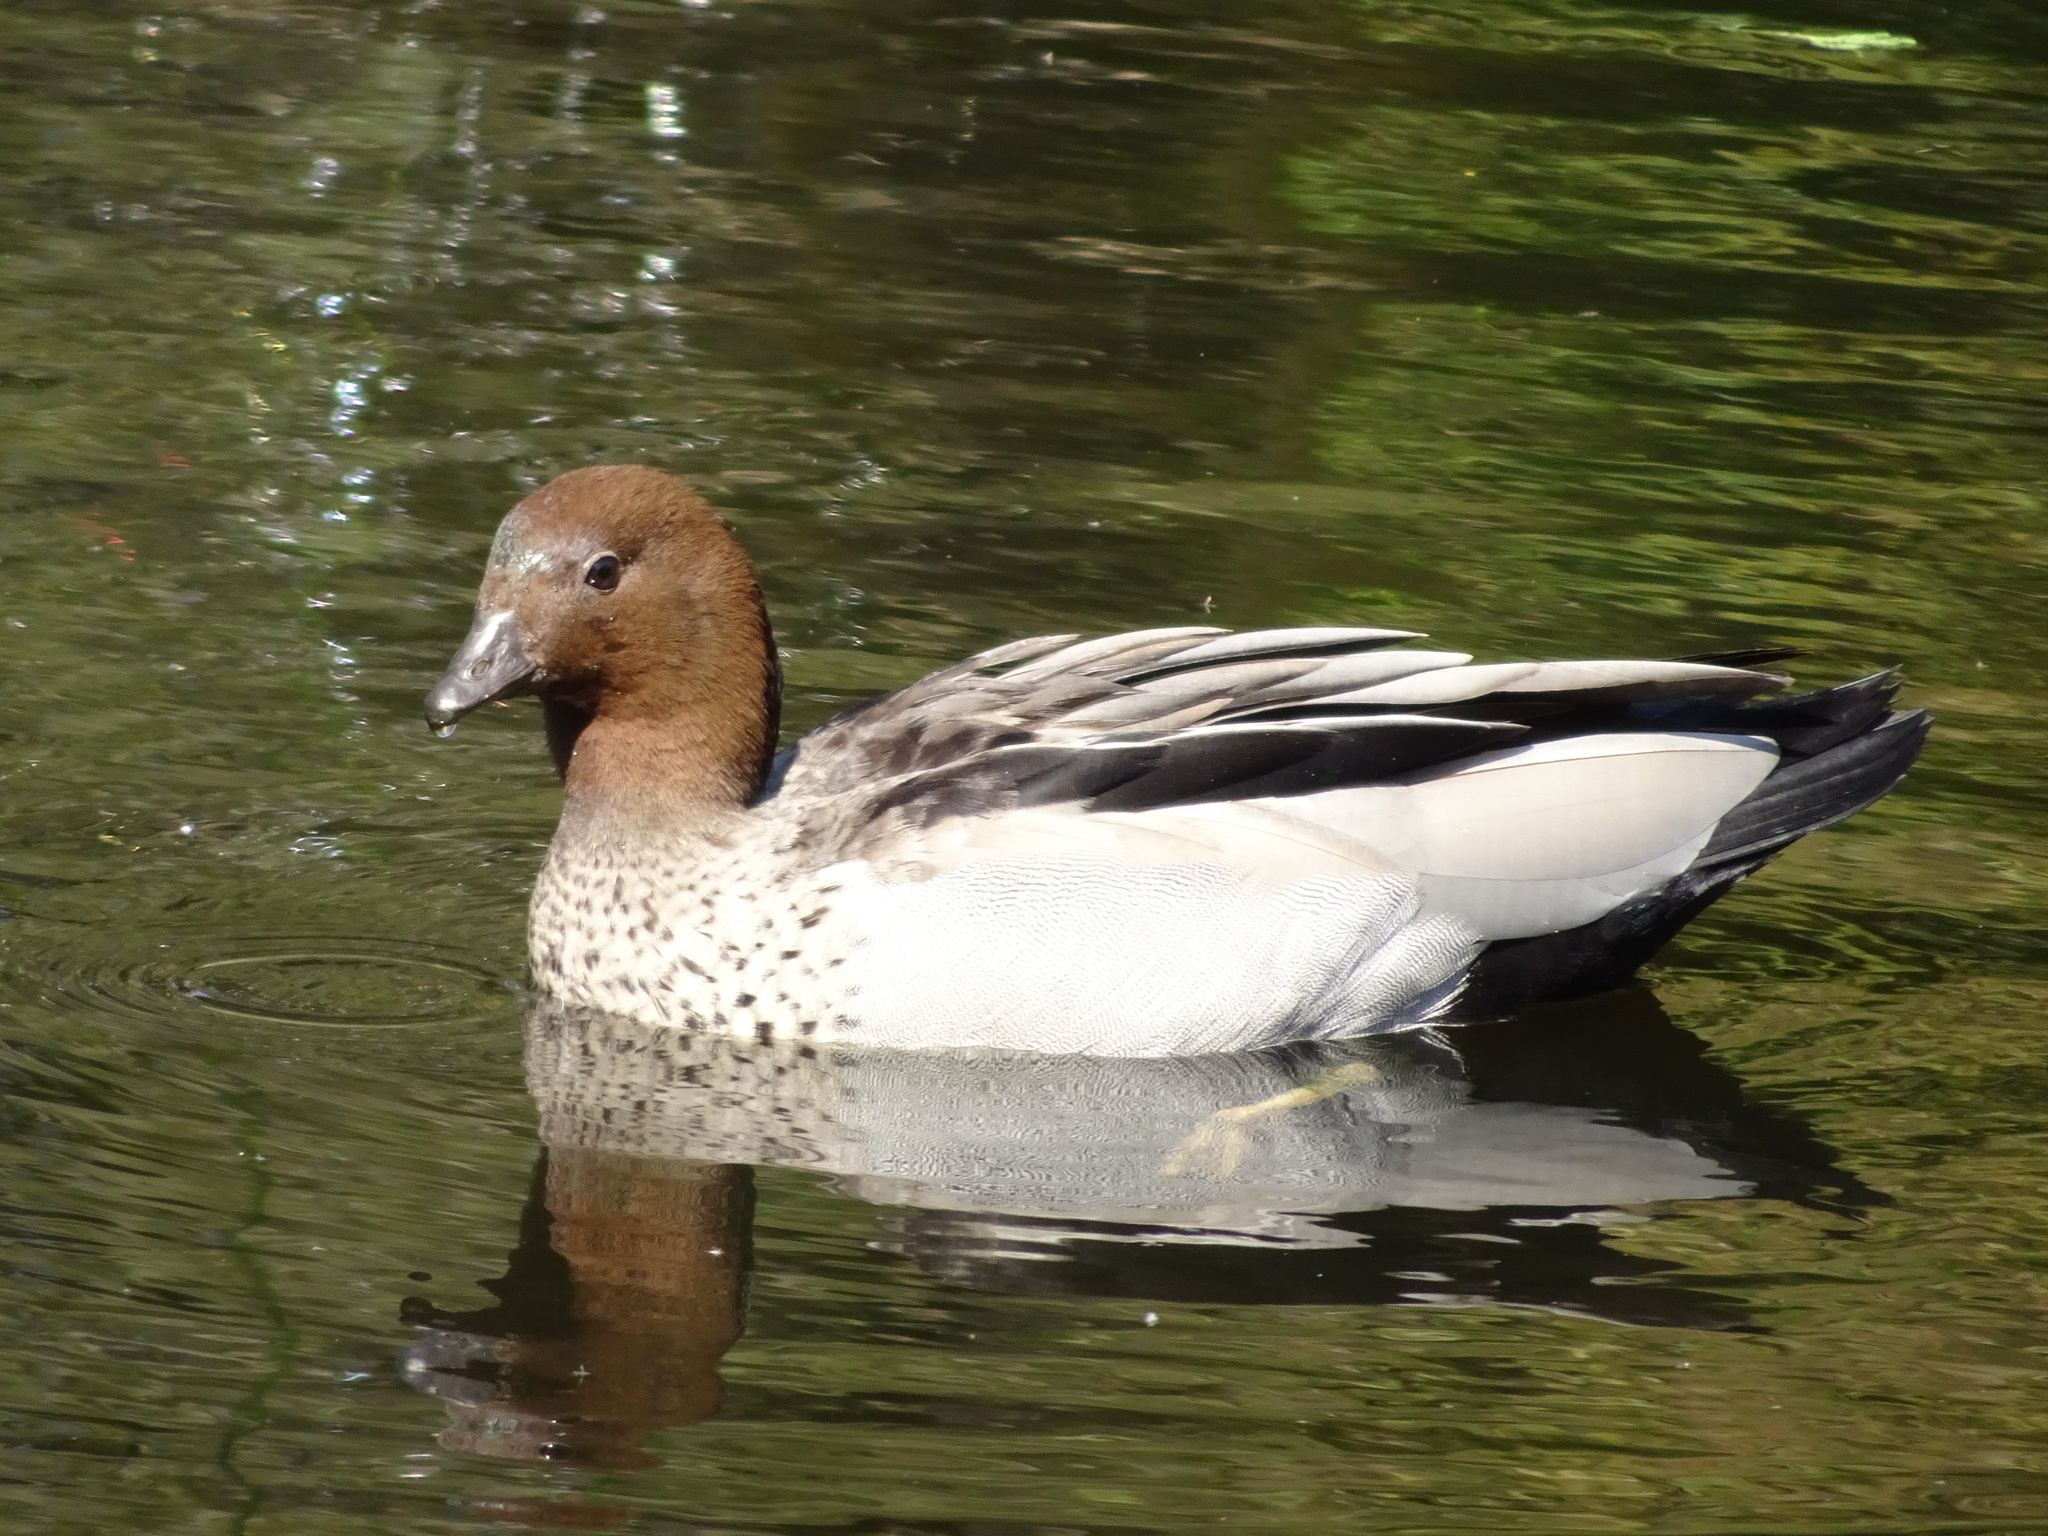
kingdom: Animalia
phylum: Chordata
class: Aves
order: Anseriformes
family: Anatidae
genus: Chenonetta
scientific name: Chenonetta jubata
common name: Maned duck
